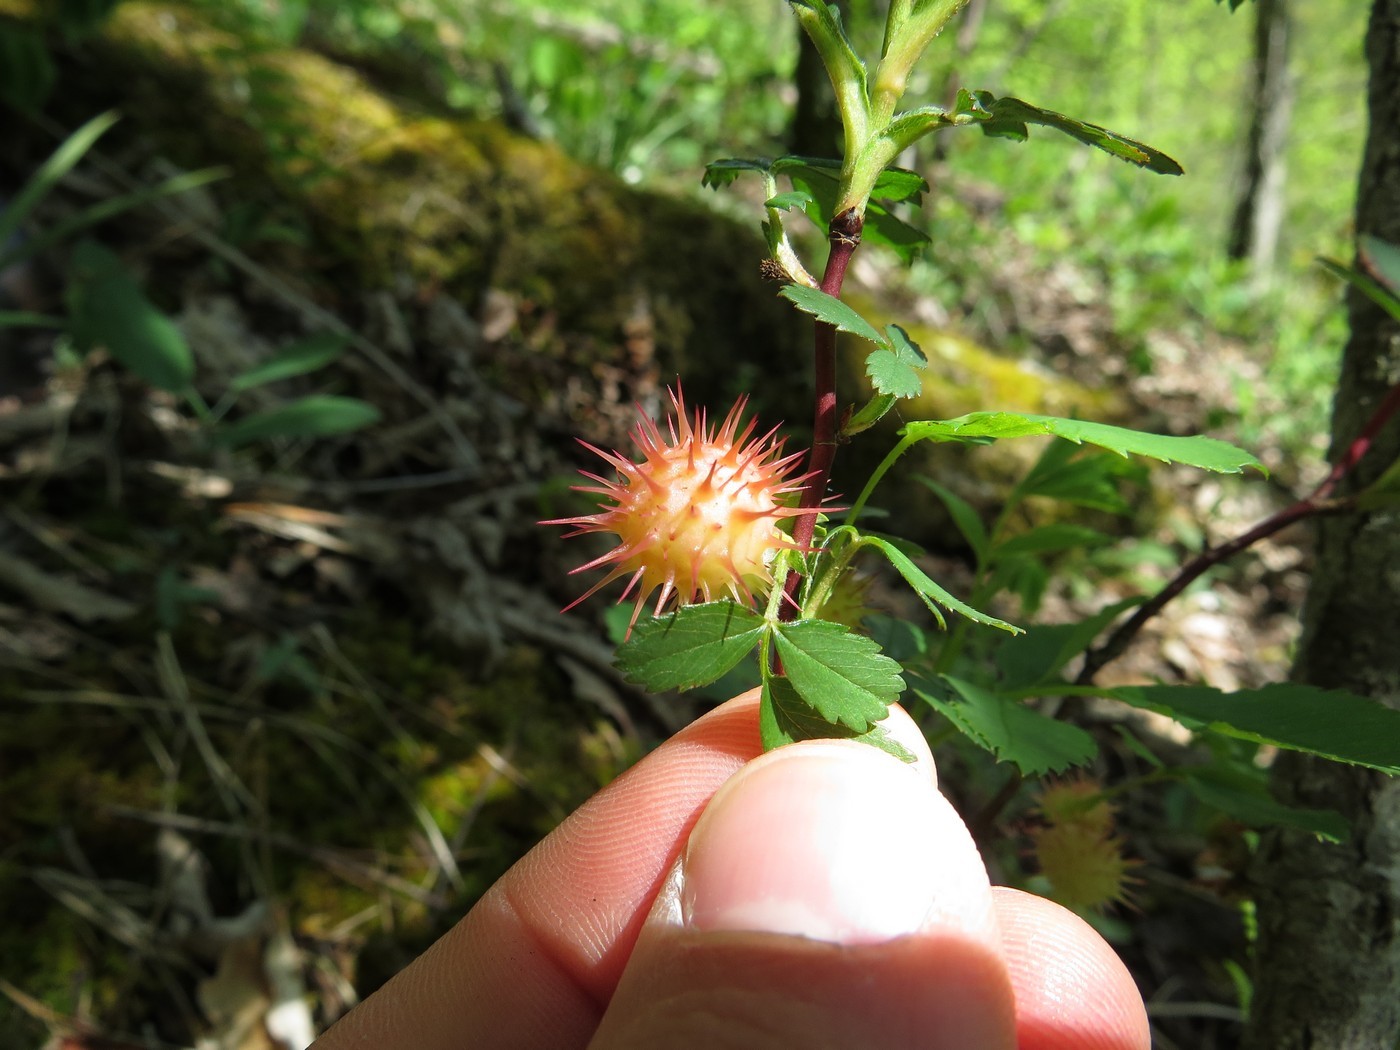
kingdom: Animalia
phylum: Arthropoda
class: Insecta
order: Hymenoptera
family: Cynipidae
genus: Diplolepis
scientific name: Diplolepis bicolor
